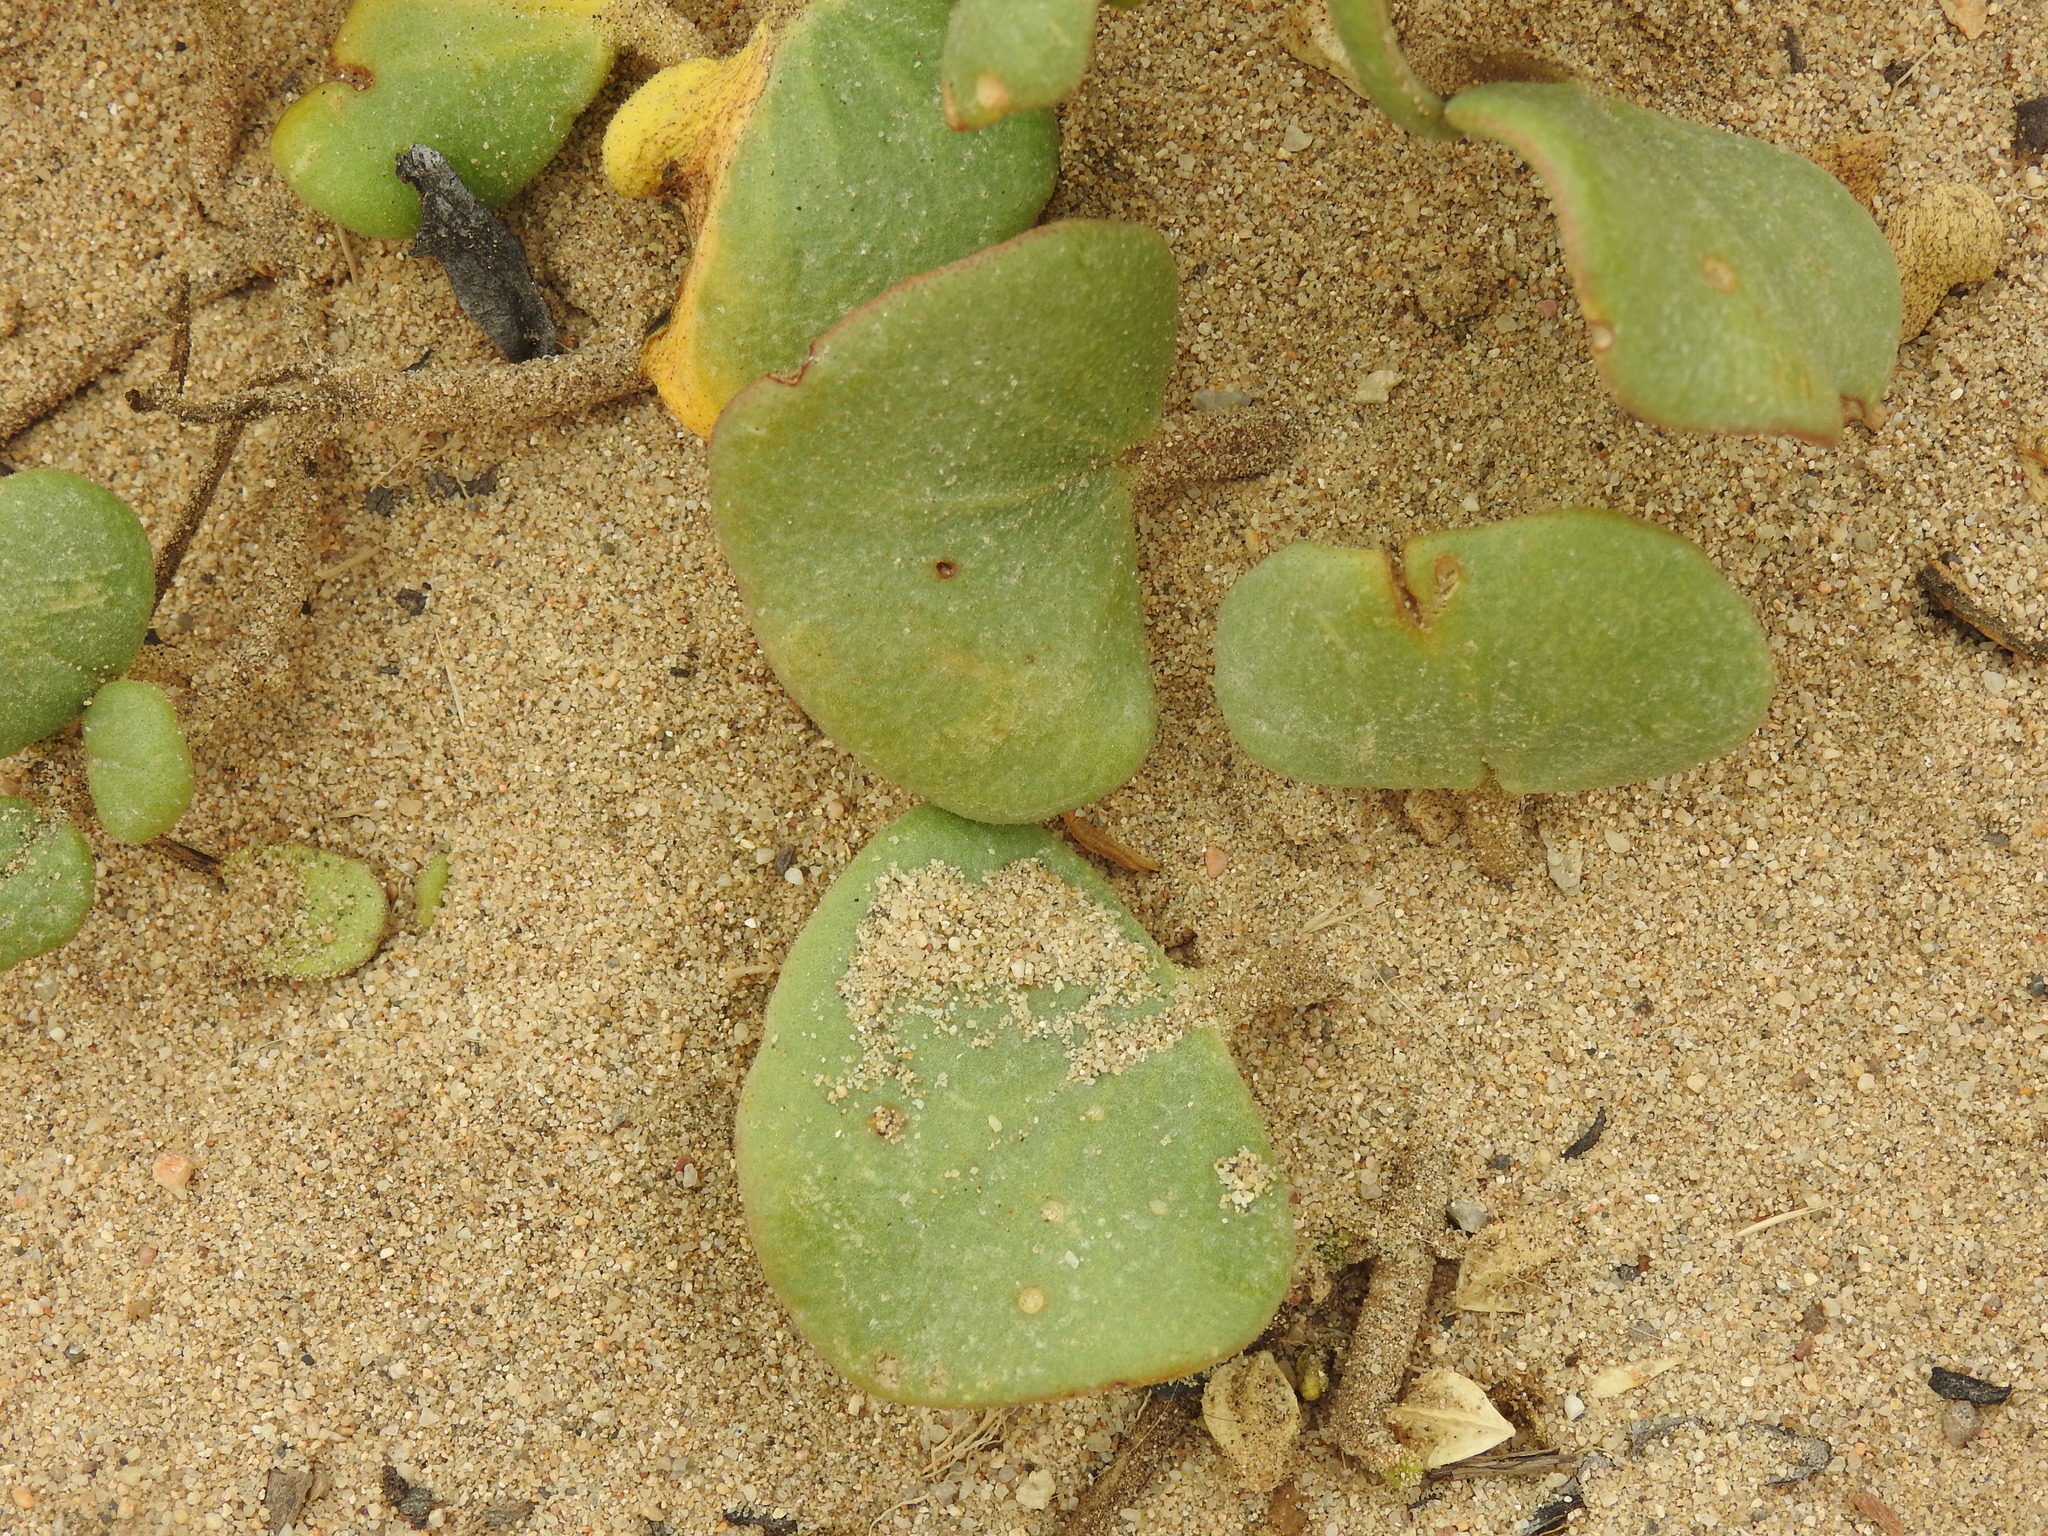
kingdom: Plantae
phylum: Tracheophyta
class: Magnoliopsida
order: Caryophyllales
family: Nyctaginaceae
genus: Abronia
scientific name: Abronia latifolia
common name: Yellow sand-verbena
